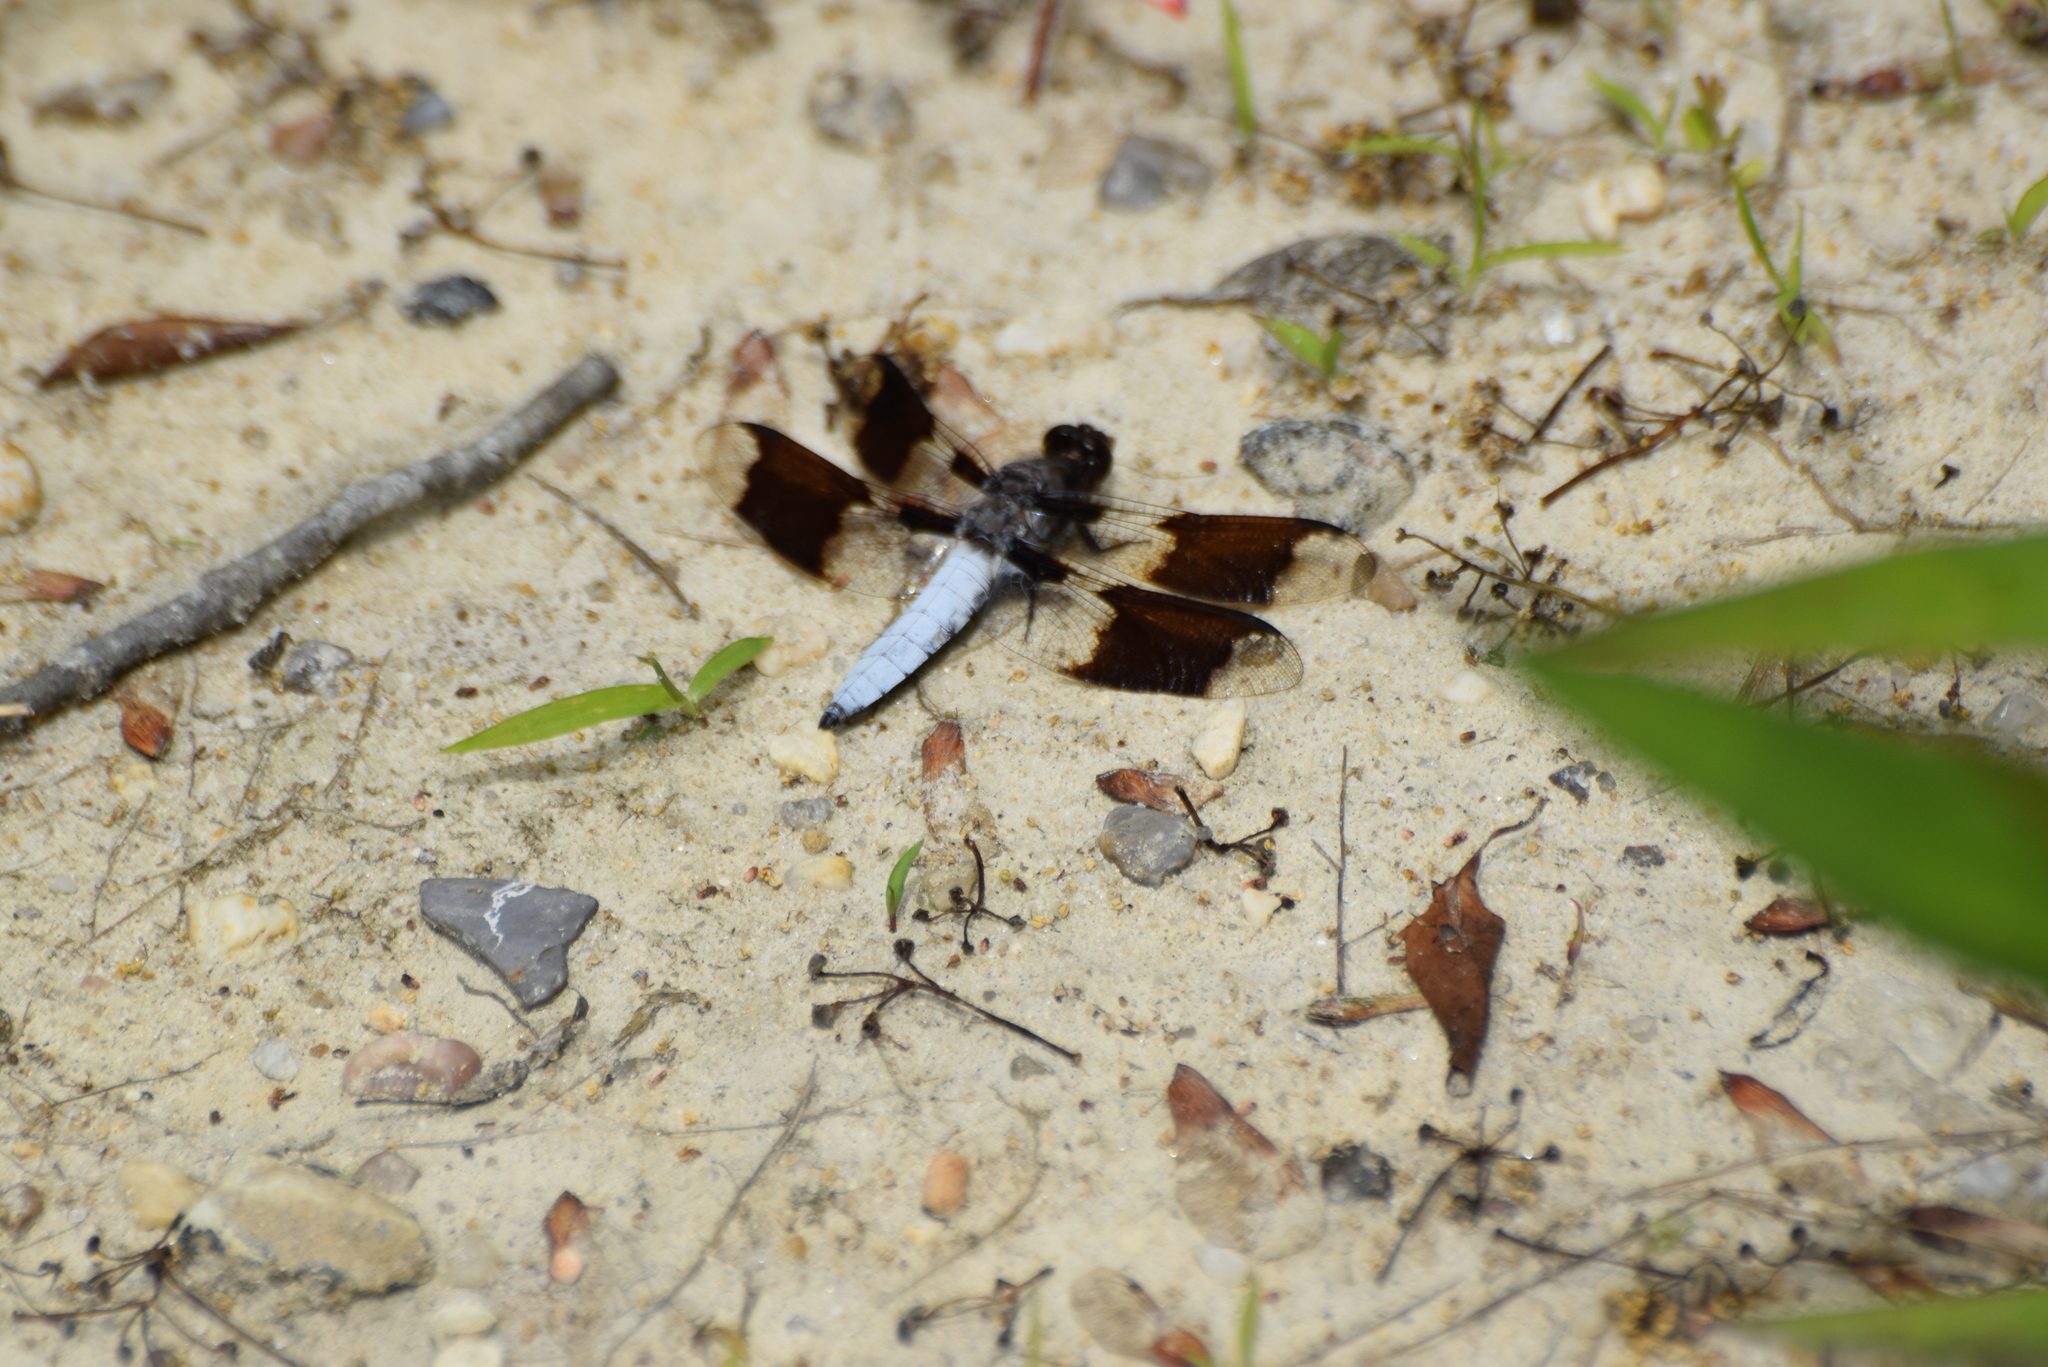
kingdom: Animalia
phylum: Arthropoda
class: Insecta
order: Odonata
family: Libellulidae
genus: Plathemis
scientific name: Plathemis lydia
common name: Common whitetail
